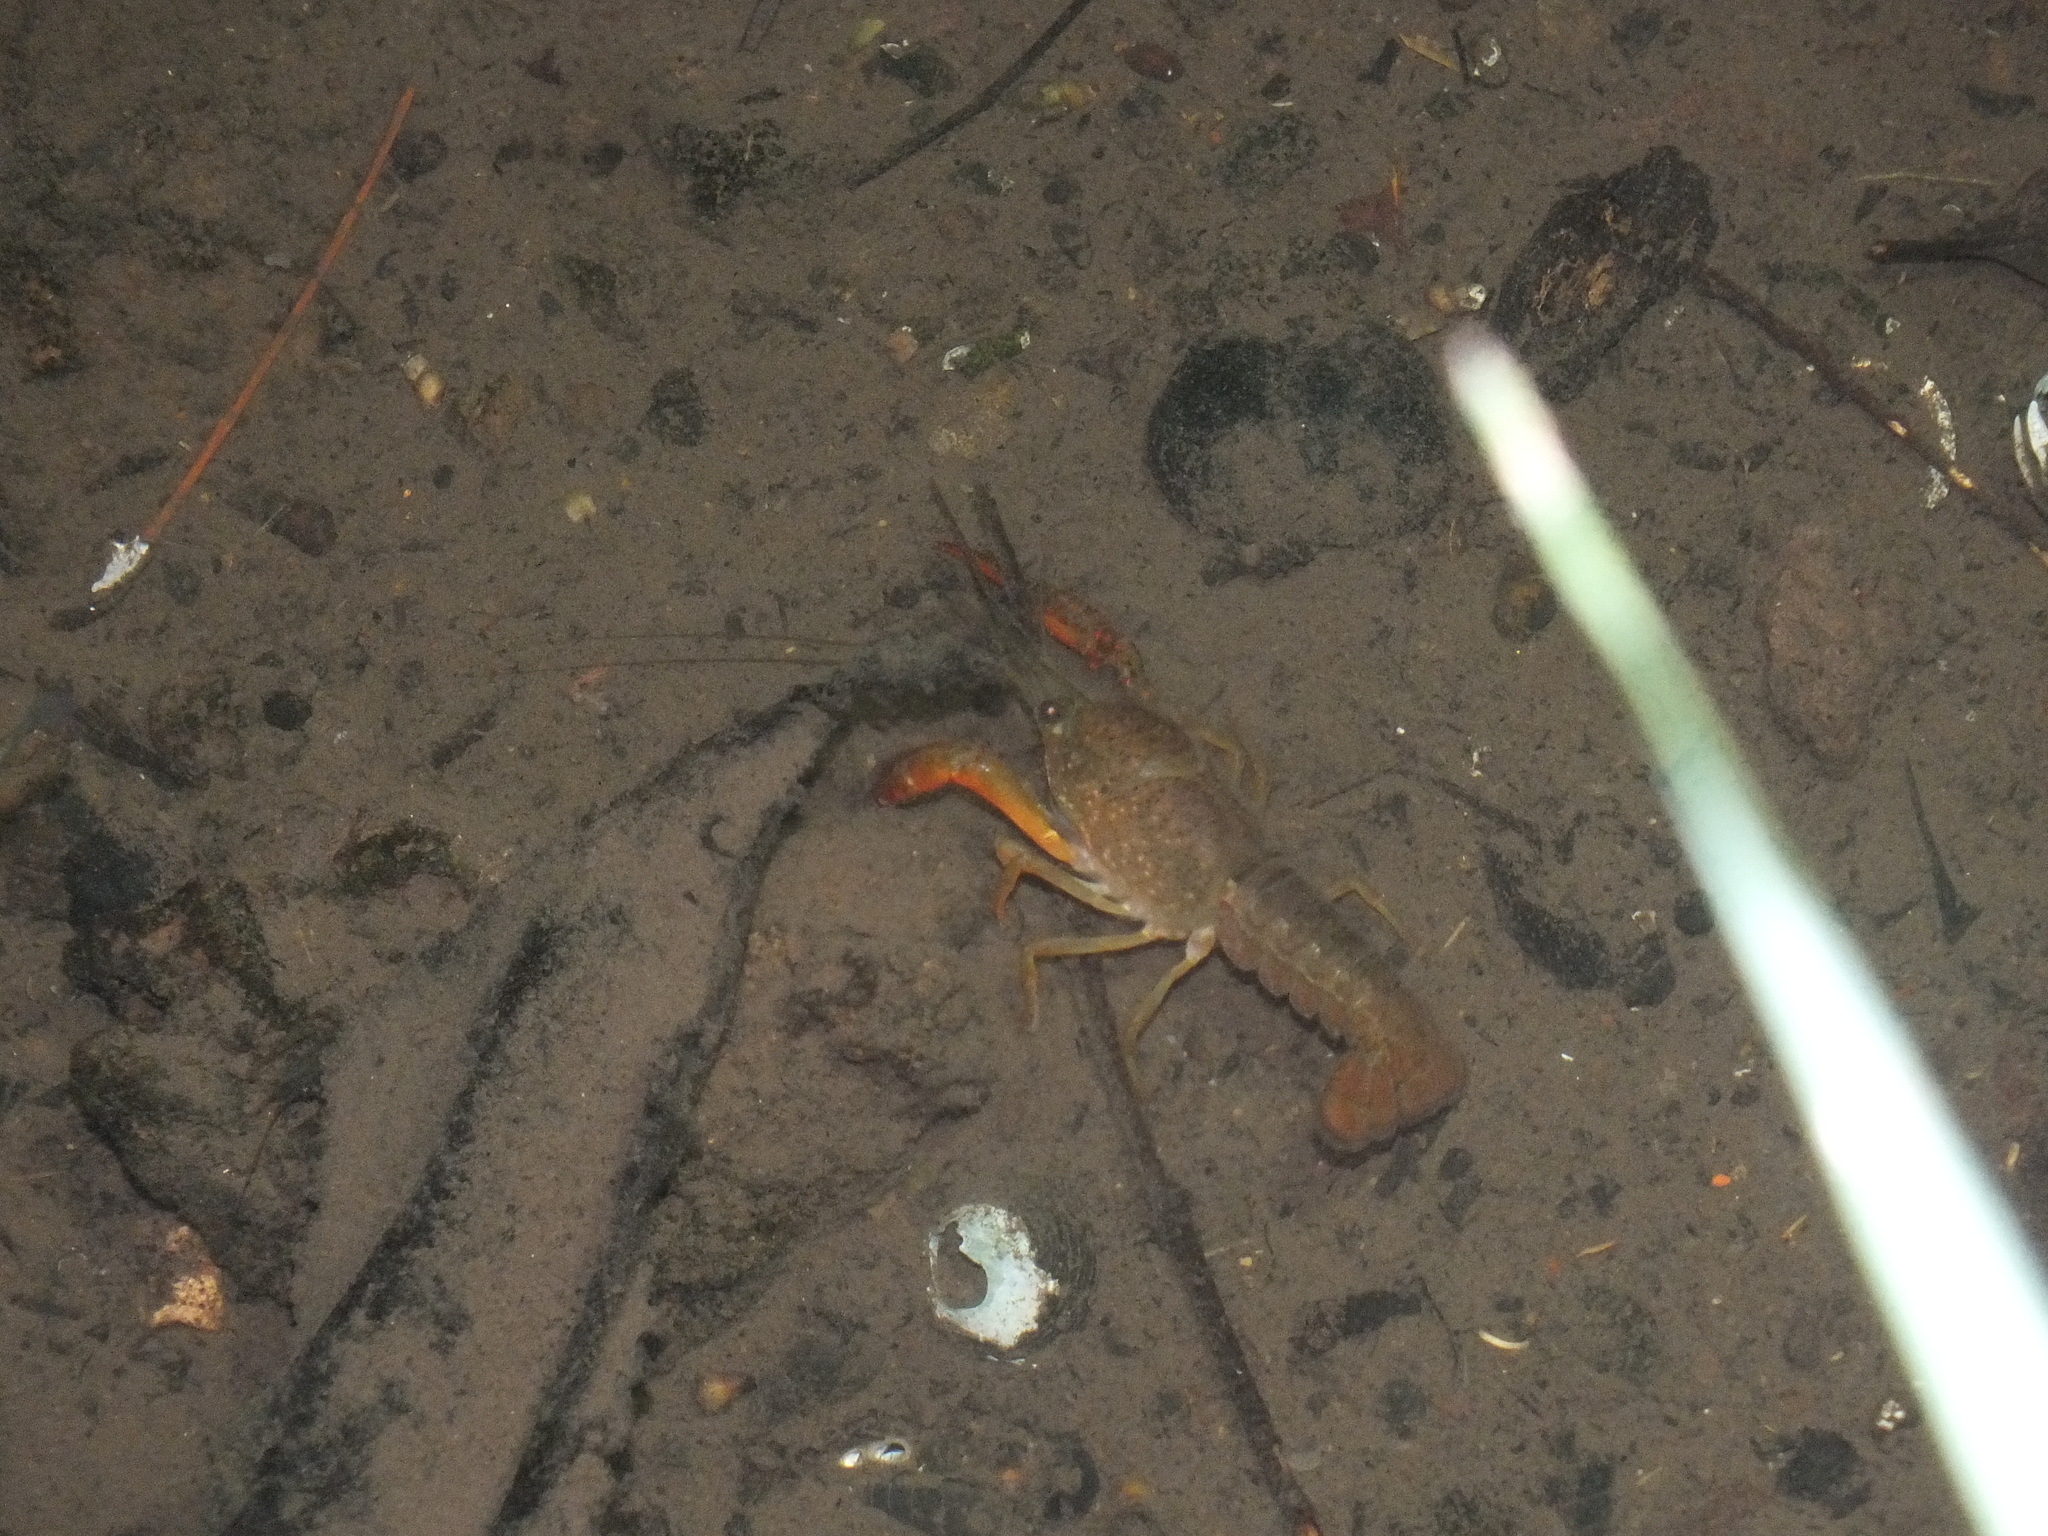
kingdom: Animalia
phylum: Arthropoda
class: Malacostraca
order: Decapoda
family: Cambaridae
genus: Procambarus
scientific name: Procambarus clarkii
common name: Red swamp crayfish
